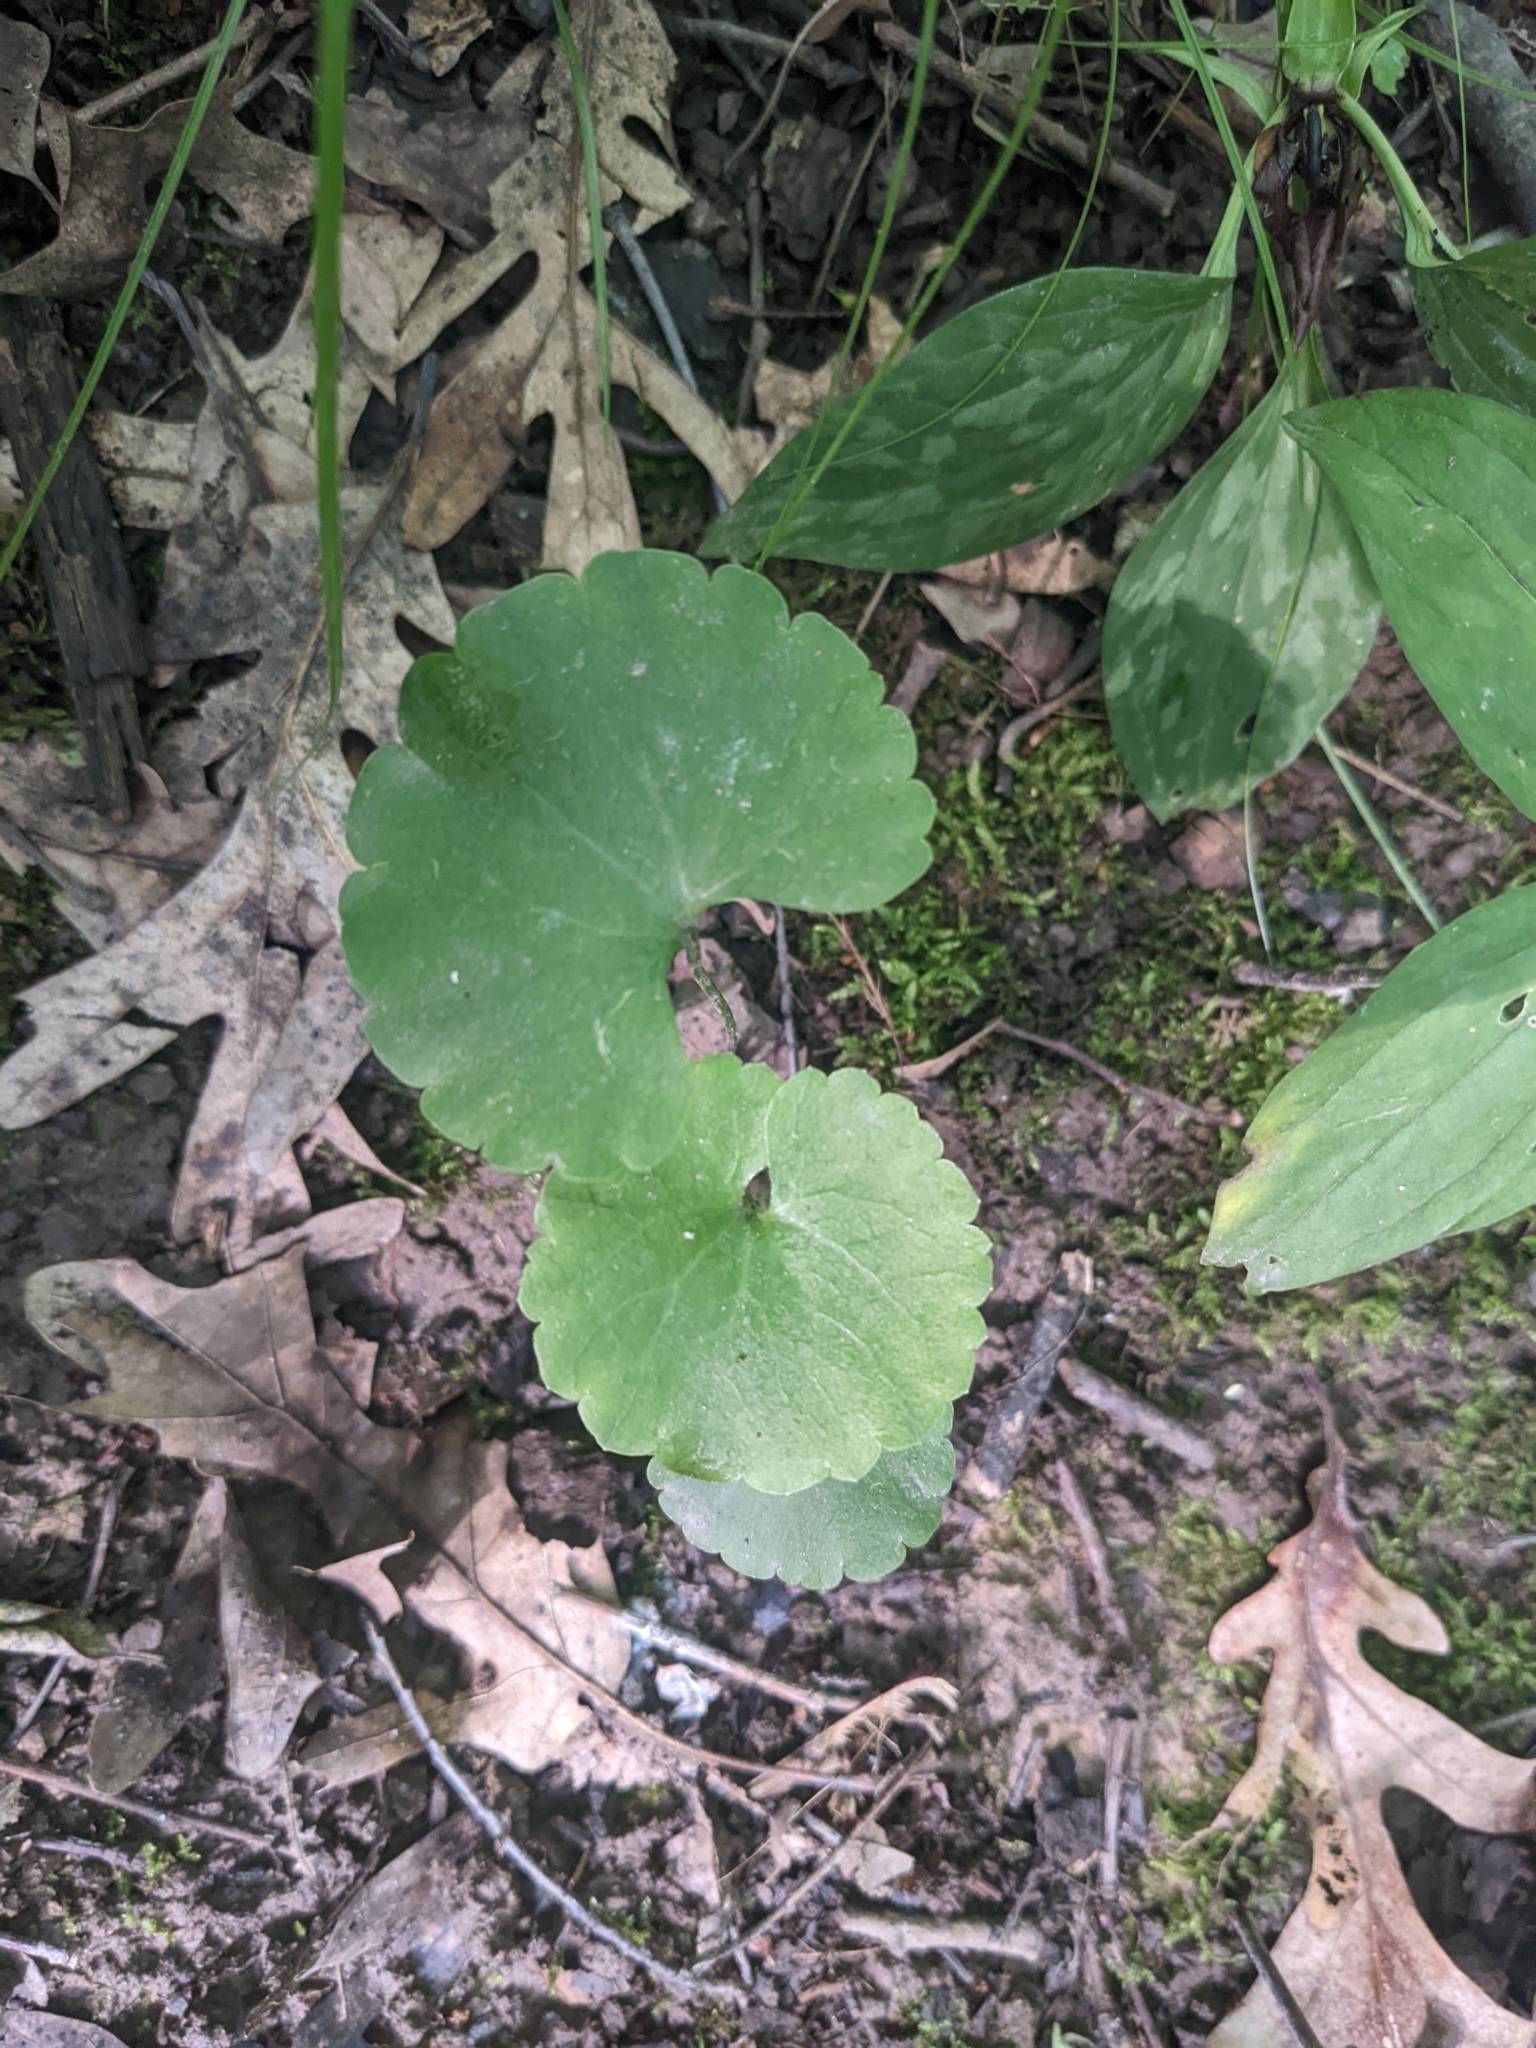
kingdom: Plantae
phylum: Tracheophyta
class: Magnoliopsida
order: Ranunculales
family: Ranunculaceae
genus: Ranunculus
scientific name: Ranunculus abortivus
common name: Early wood buttercup
